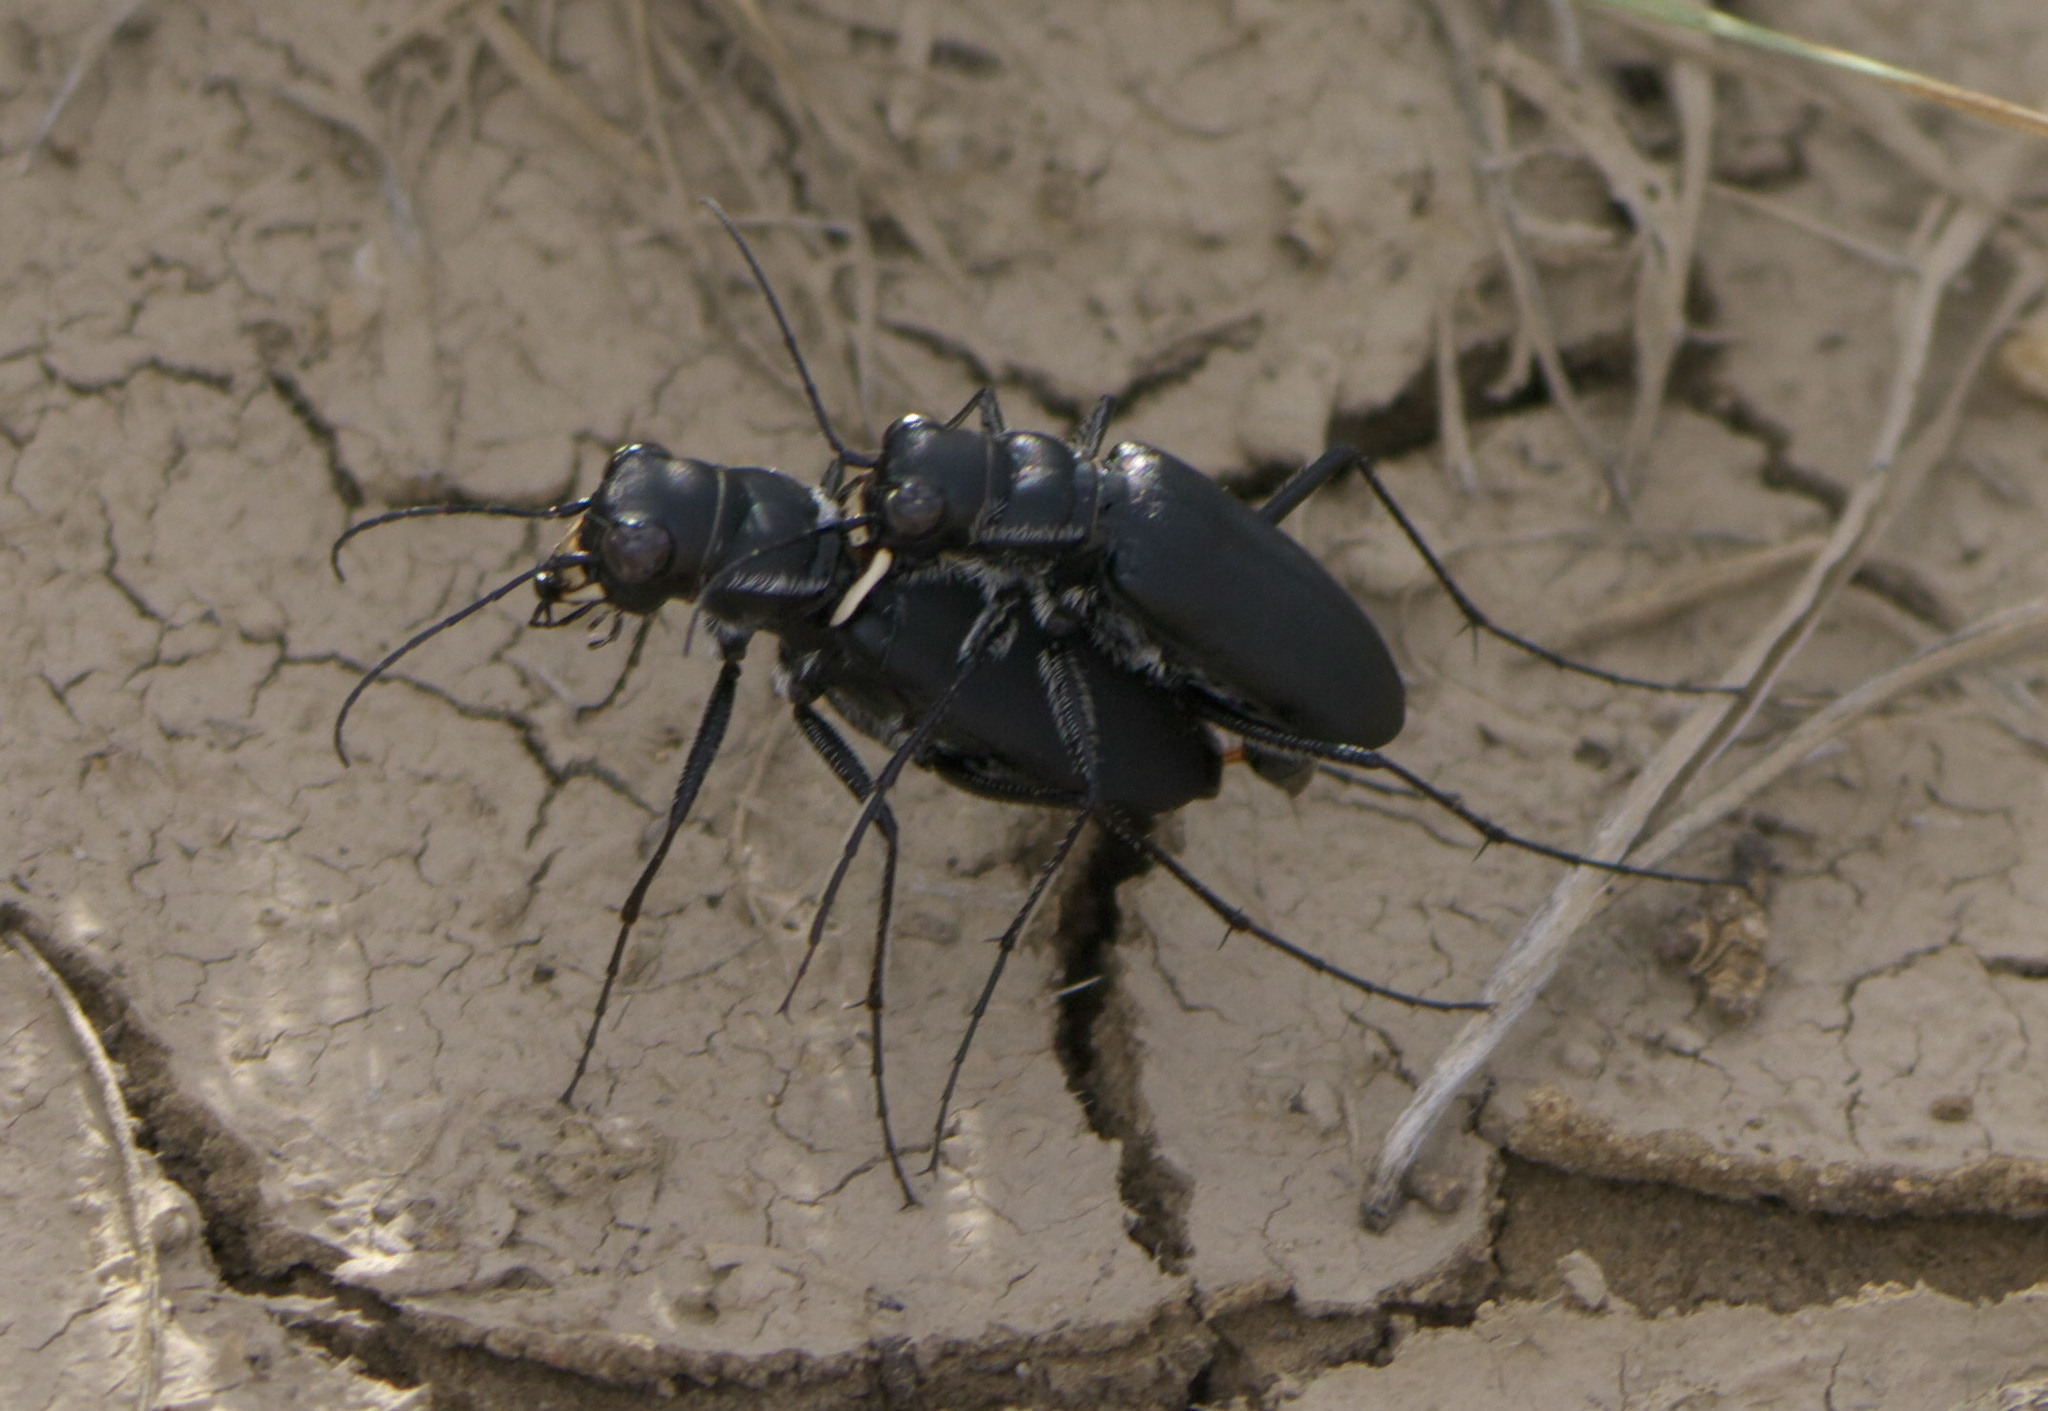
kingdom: Animalia
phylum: Arthropoda
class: Insecta
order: Coleoptera
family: Carabidae
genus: Cicindela
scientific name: Cicindela obsoleta
